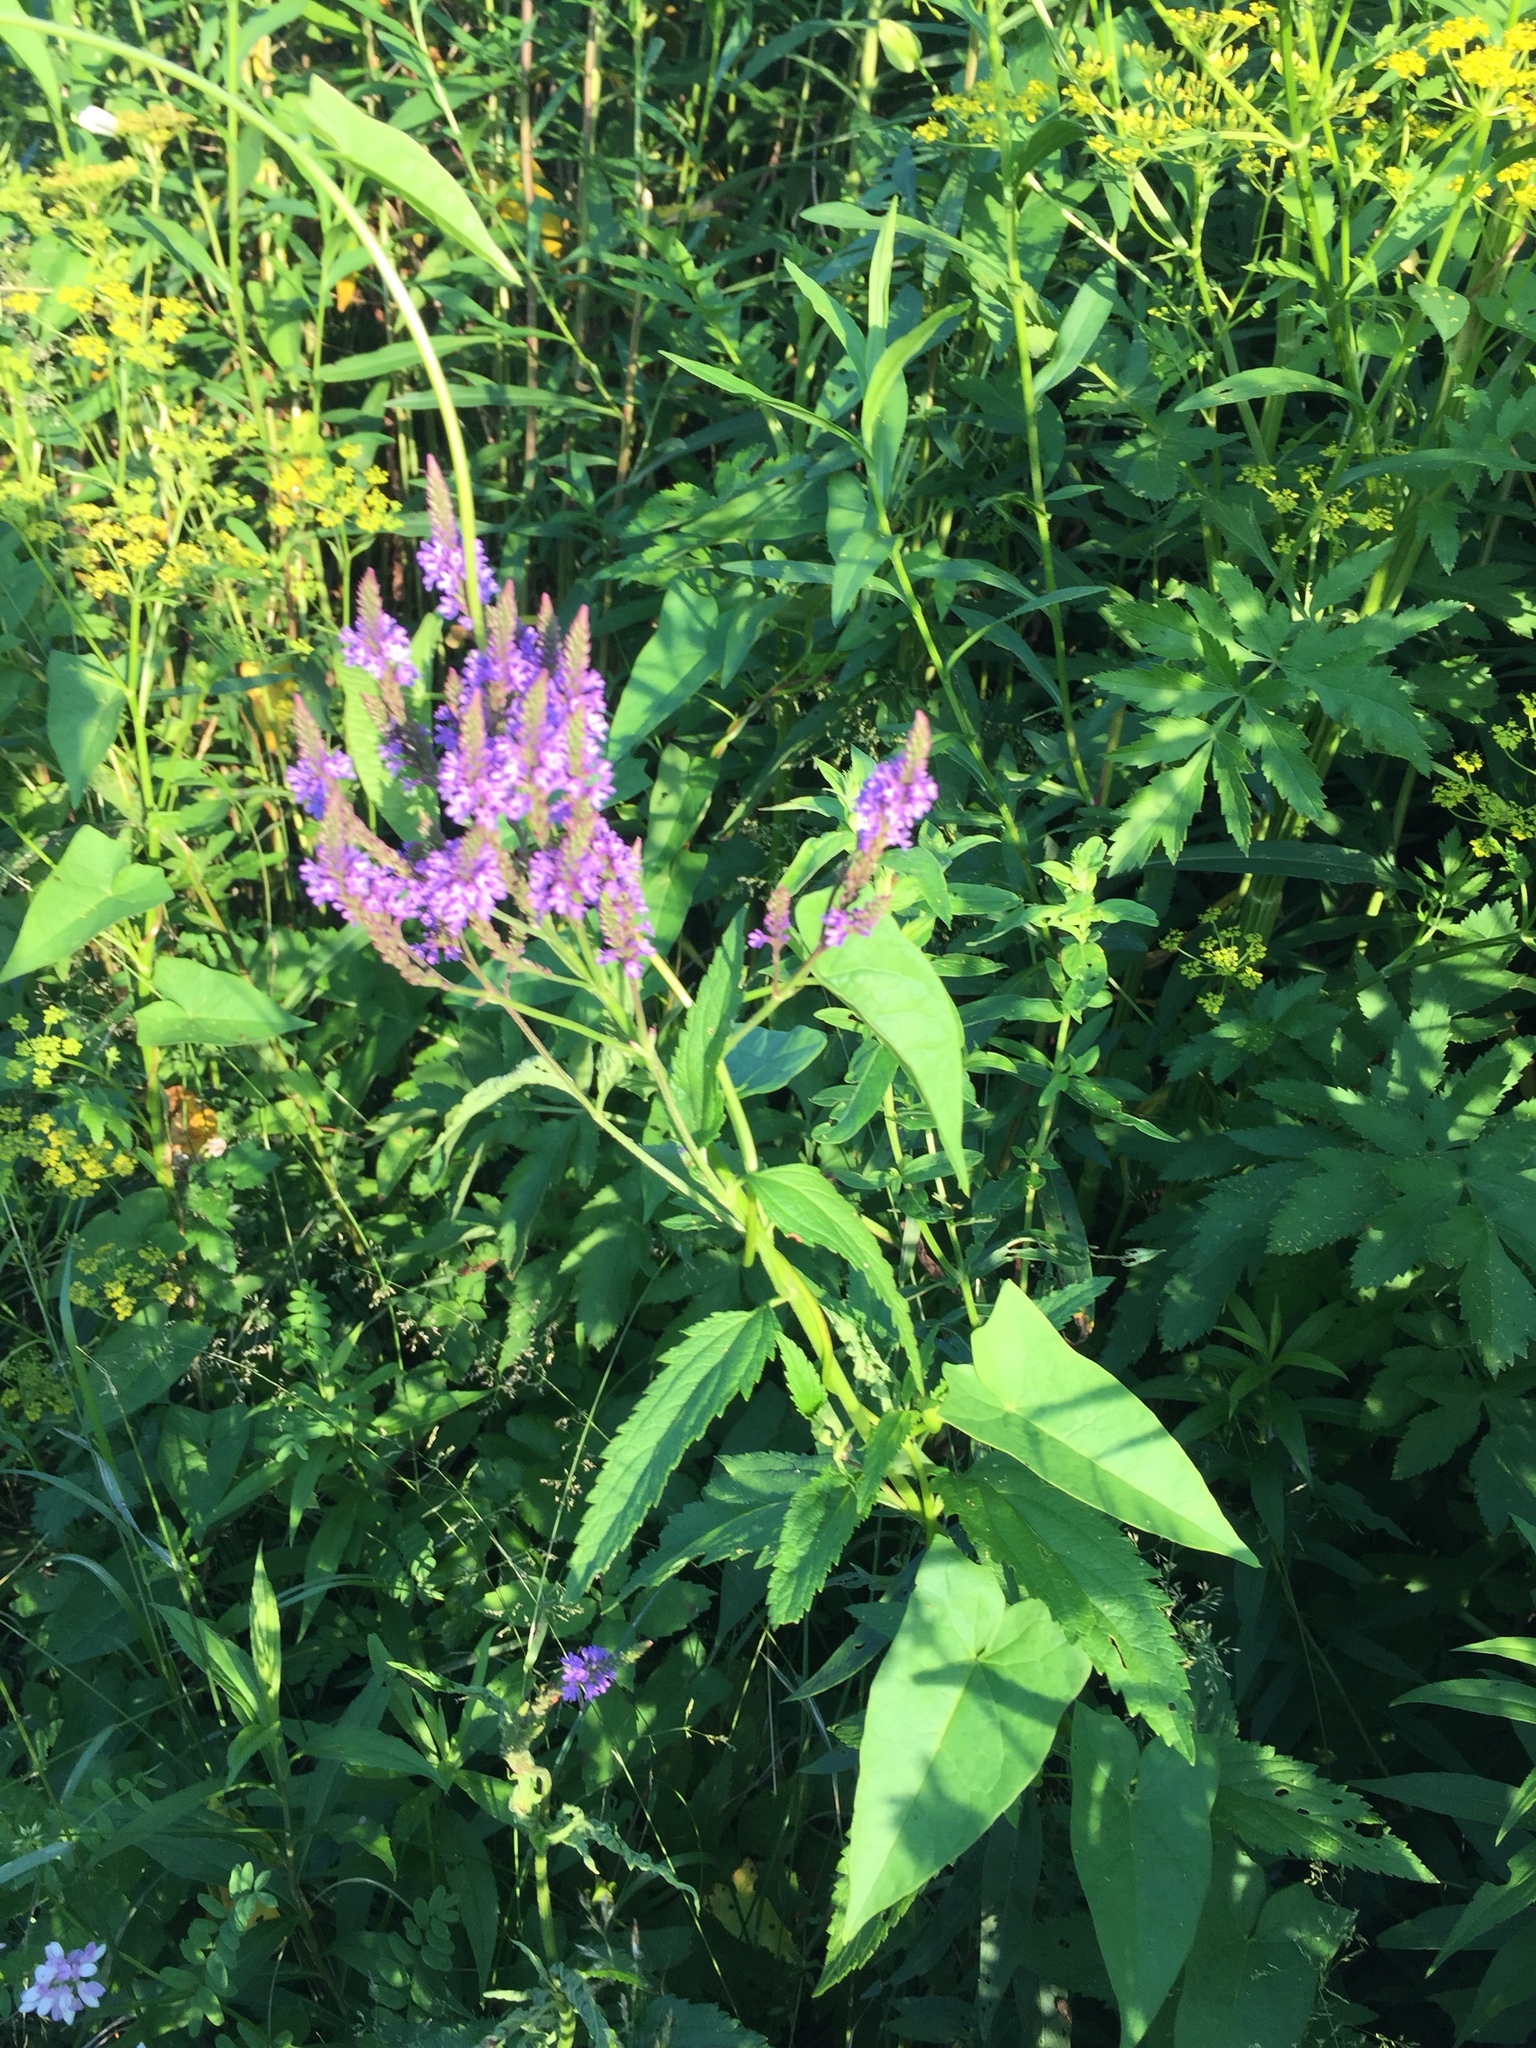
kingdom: Plantae
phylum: Tracheophyta
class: Magnoliopsida
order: Lamiales
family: Verbenaceae
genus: Verbena
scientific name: Verbena hastata
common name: American blue vervain
